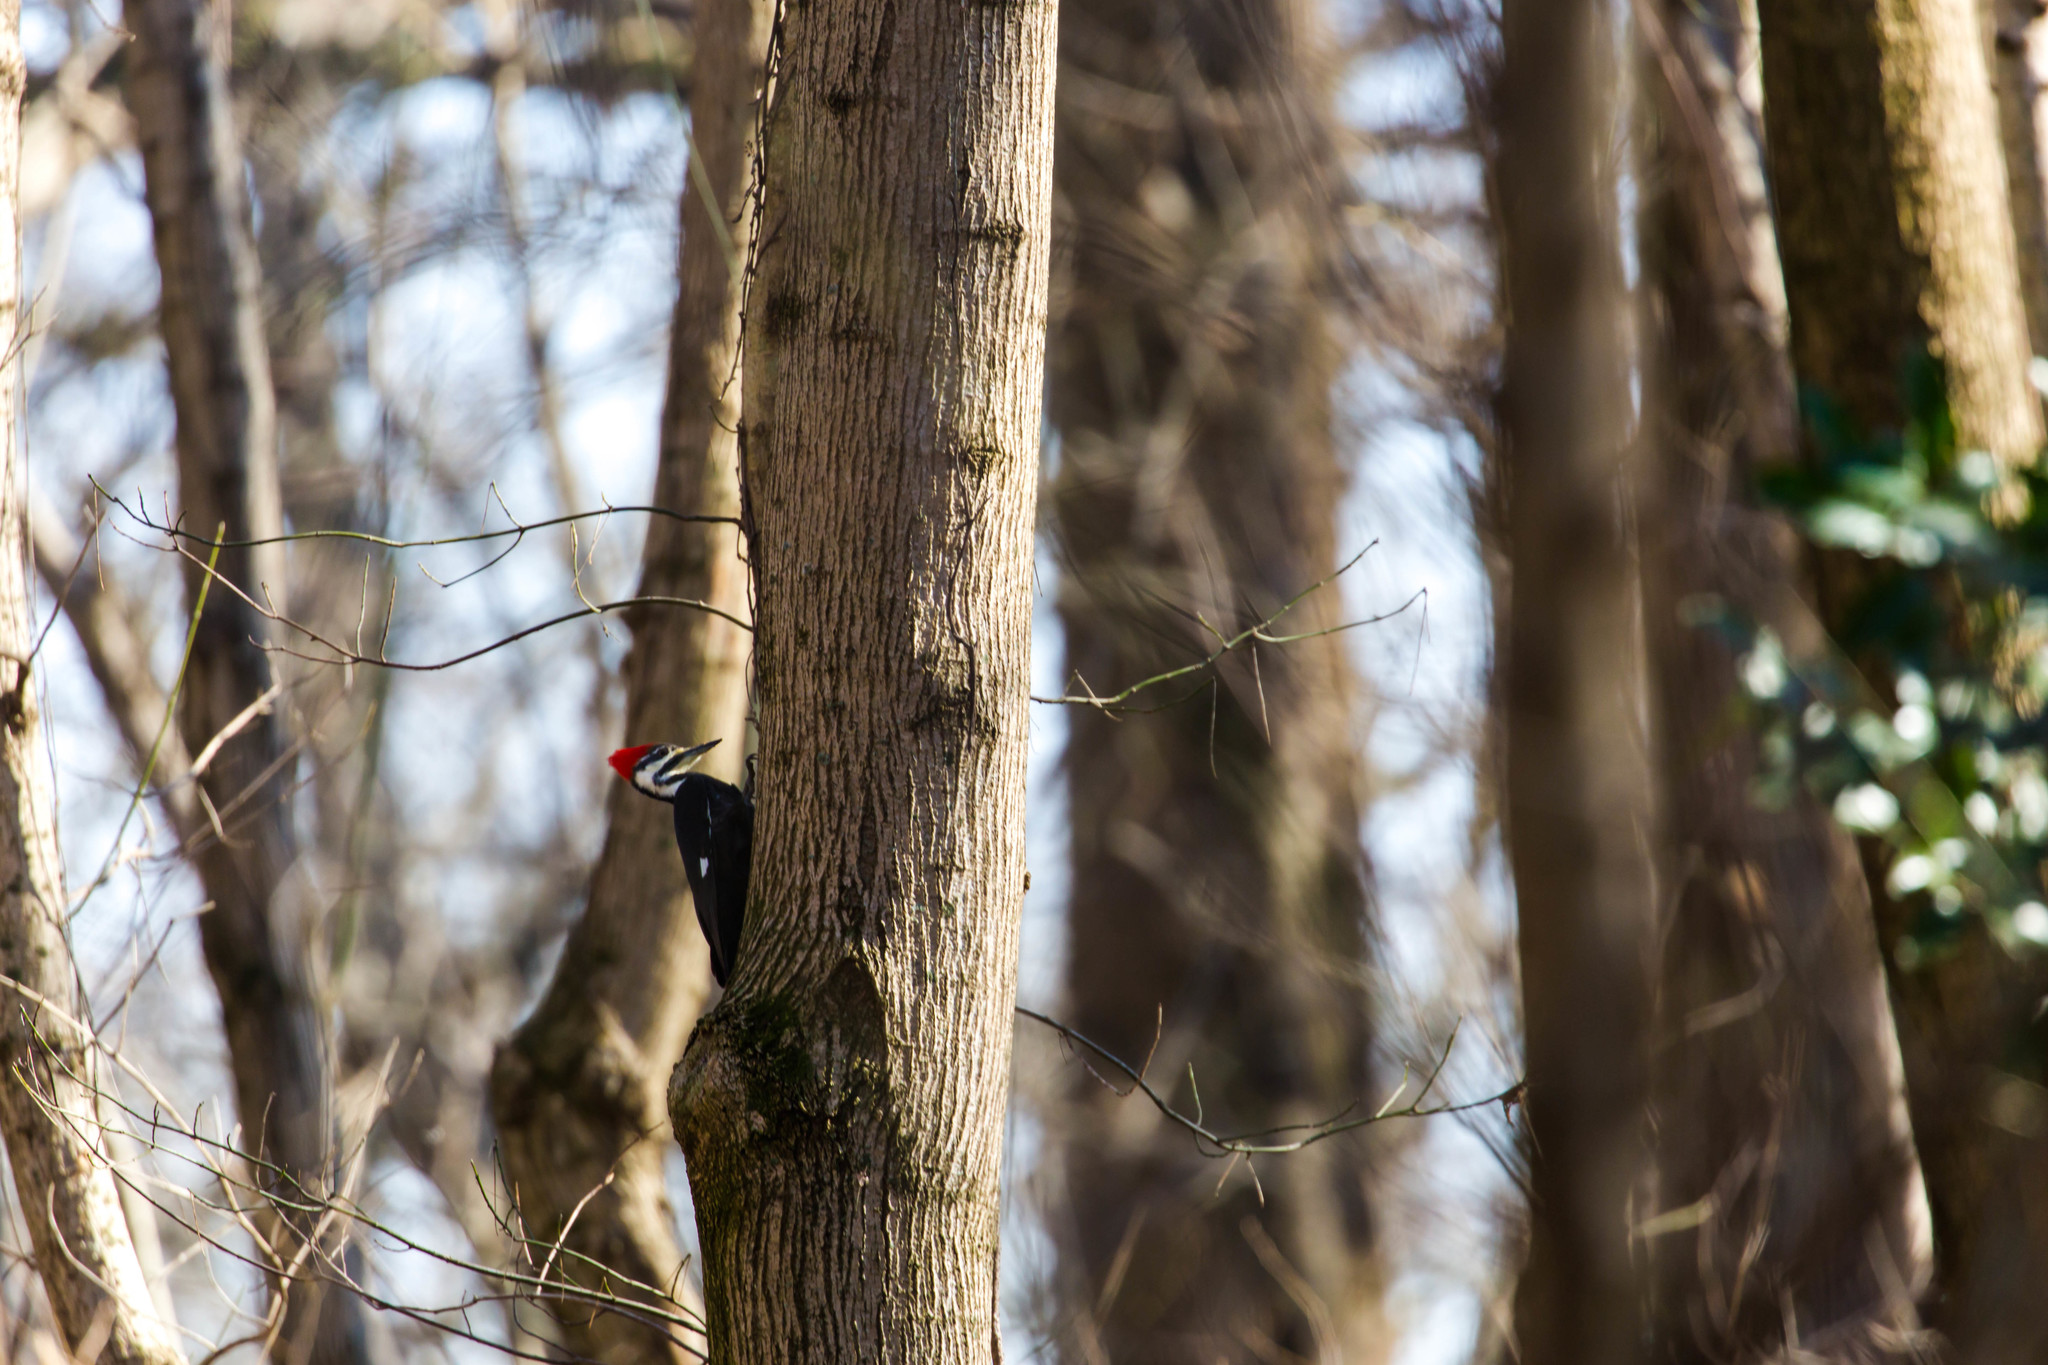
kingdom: Animalia
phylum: Chordata
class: Aves
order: Piciformes
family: Picidae
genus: Dryocopus
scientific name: Dryocopus pileatus
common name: Pileated woodpecker
